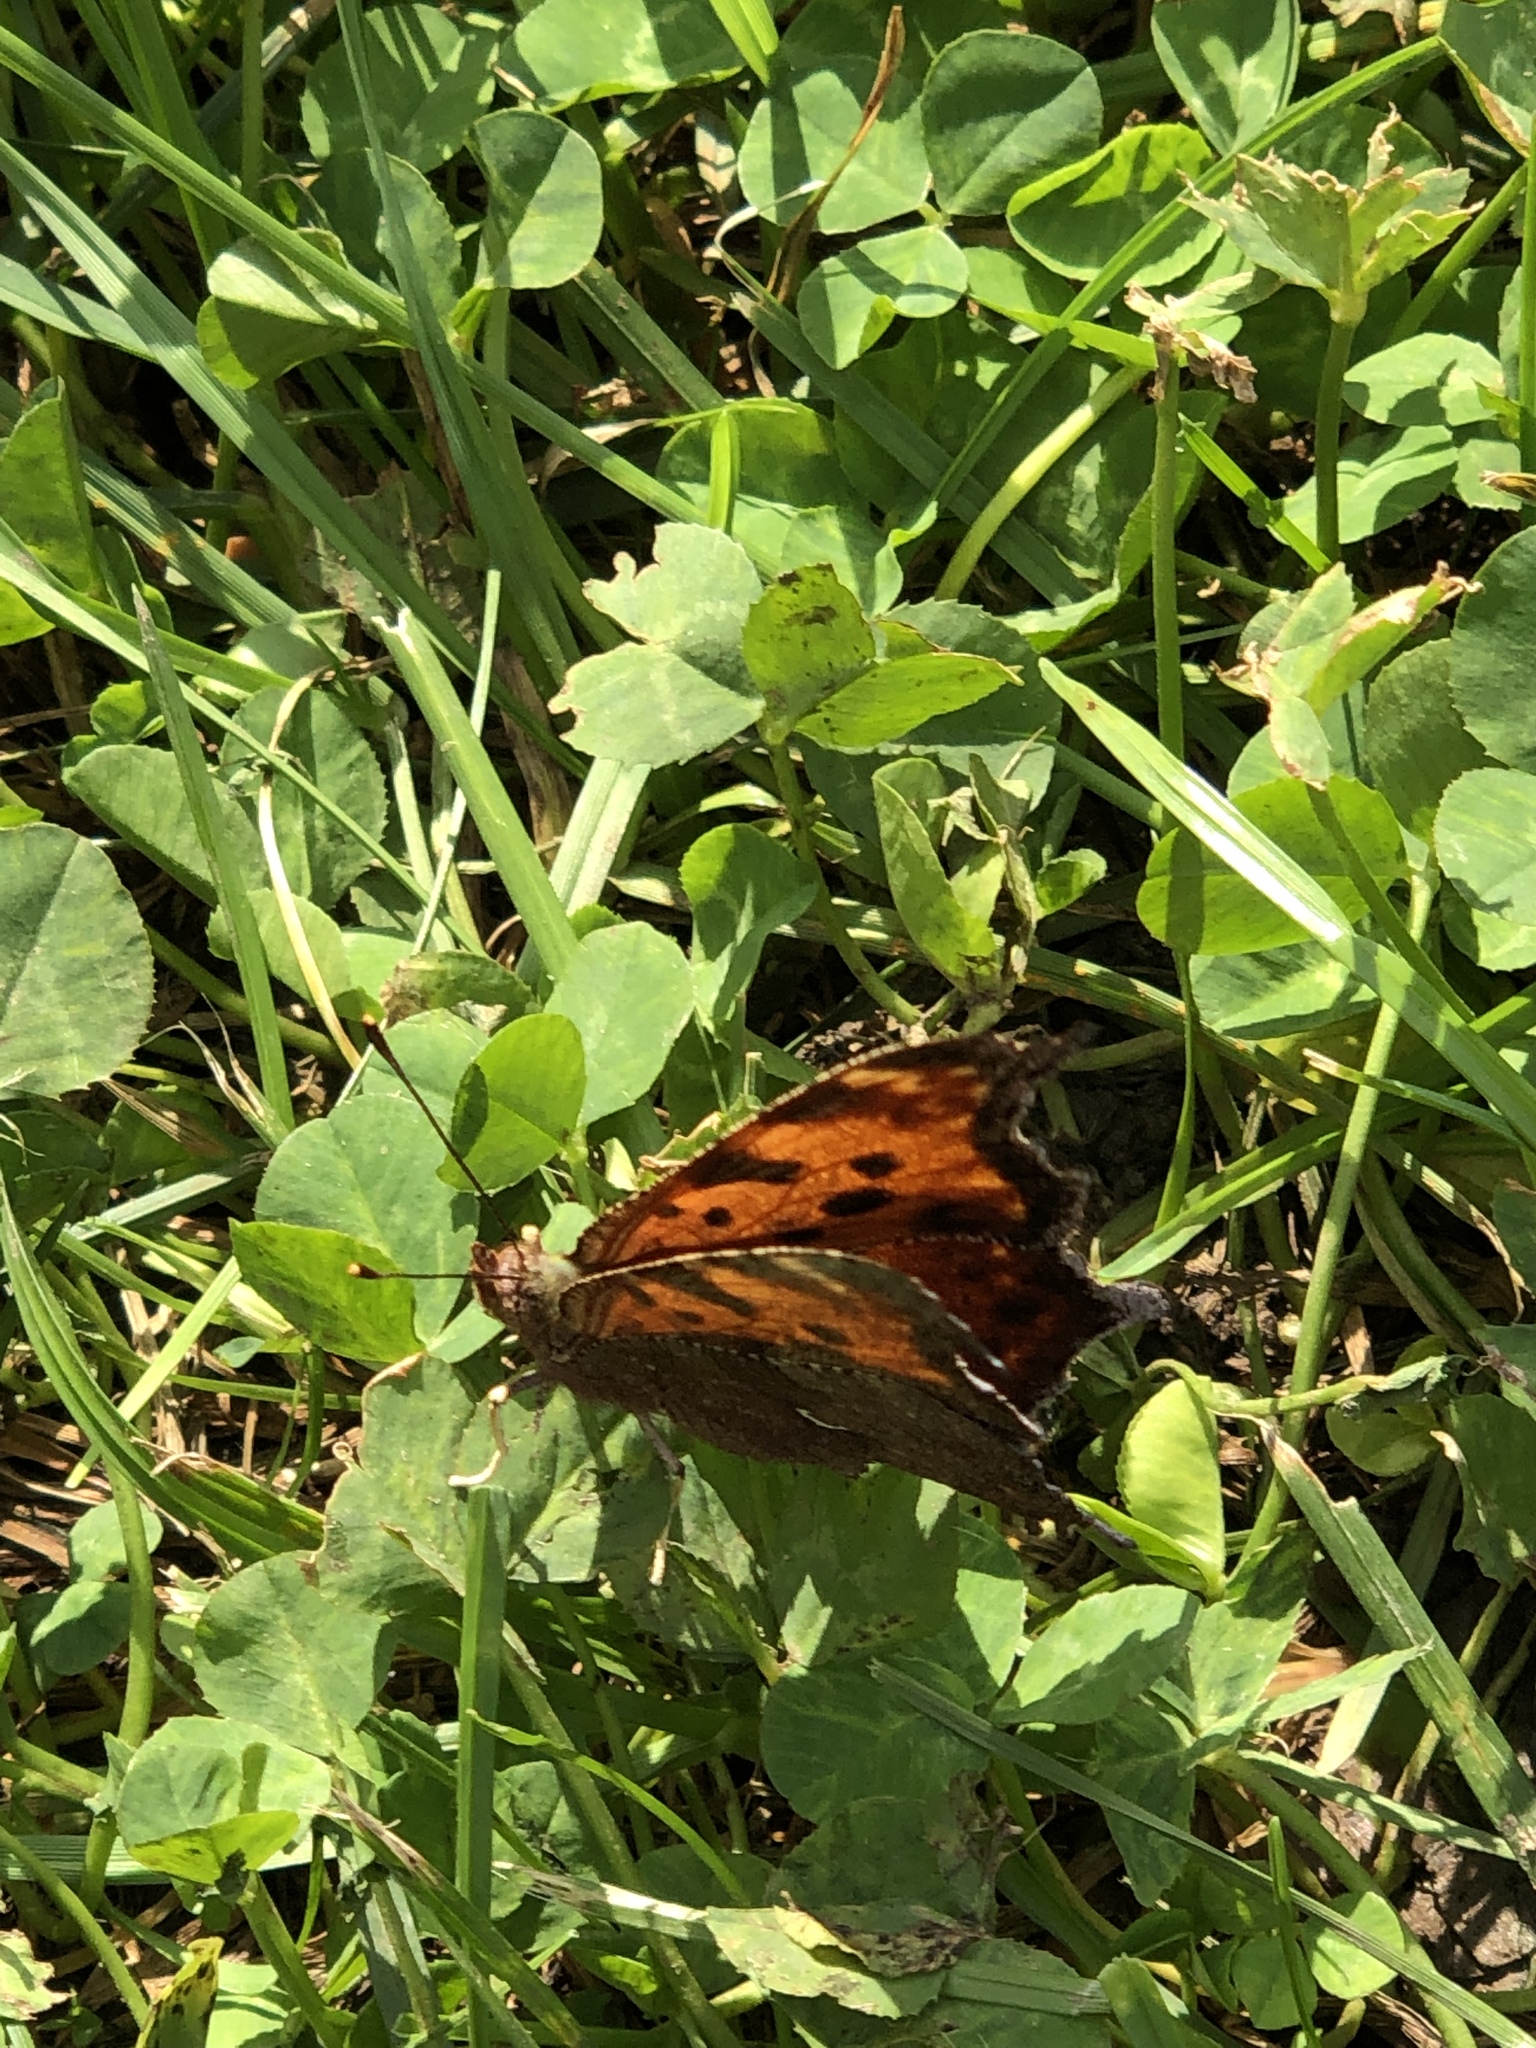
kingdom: Animalia
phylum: Arthropoda
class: Insecta
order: Lepidoptera
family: Nymphalidae
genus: Polygonia
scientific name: Polygonia comma
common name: Eastern comma
